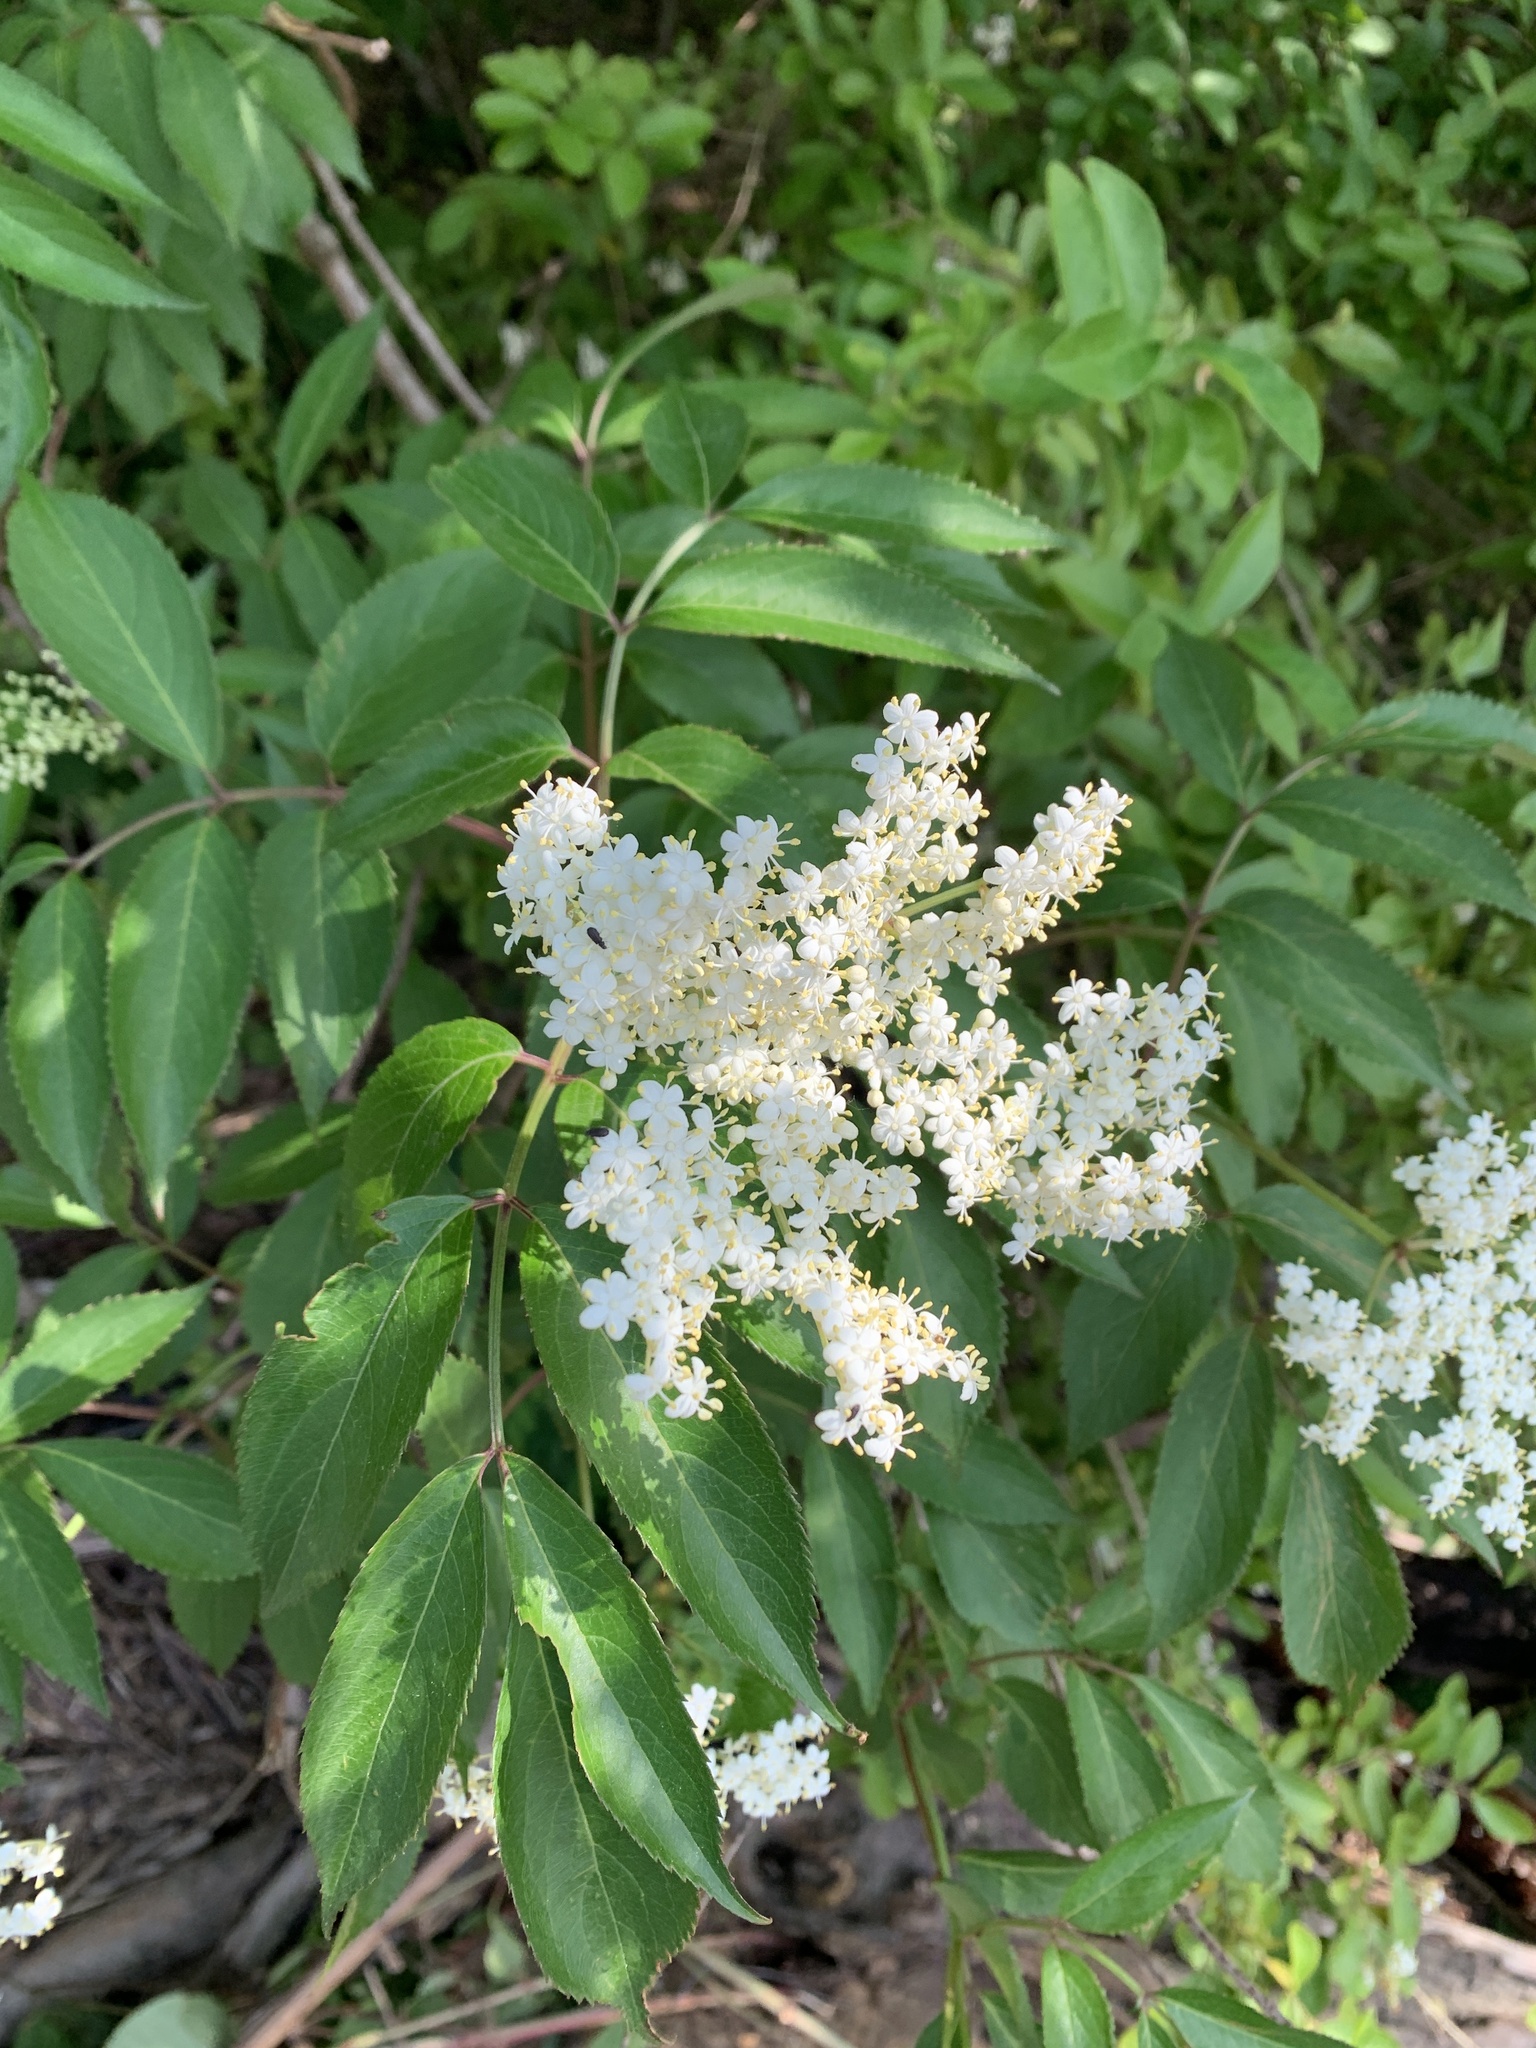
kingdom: Plantae
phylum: Tracheophyta
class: Magnoliopsida
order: Dipsacales
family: Viburnaceae
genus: Sambucus
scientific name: Sambucus canadensis
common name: American elder
